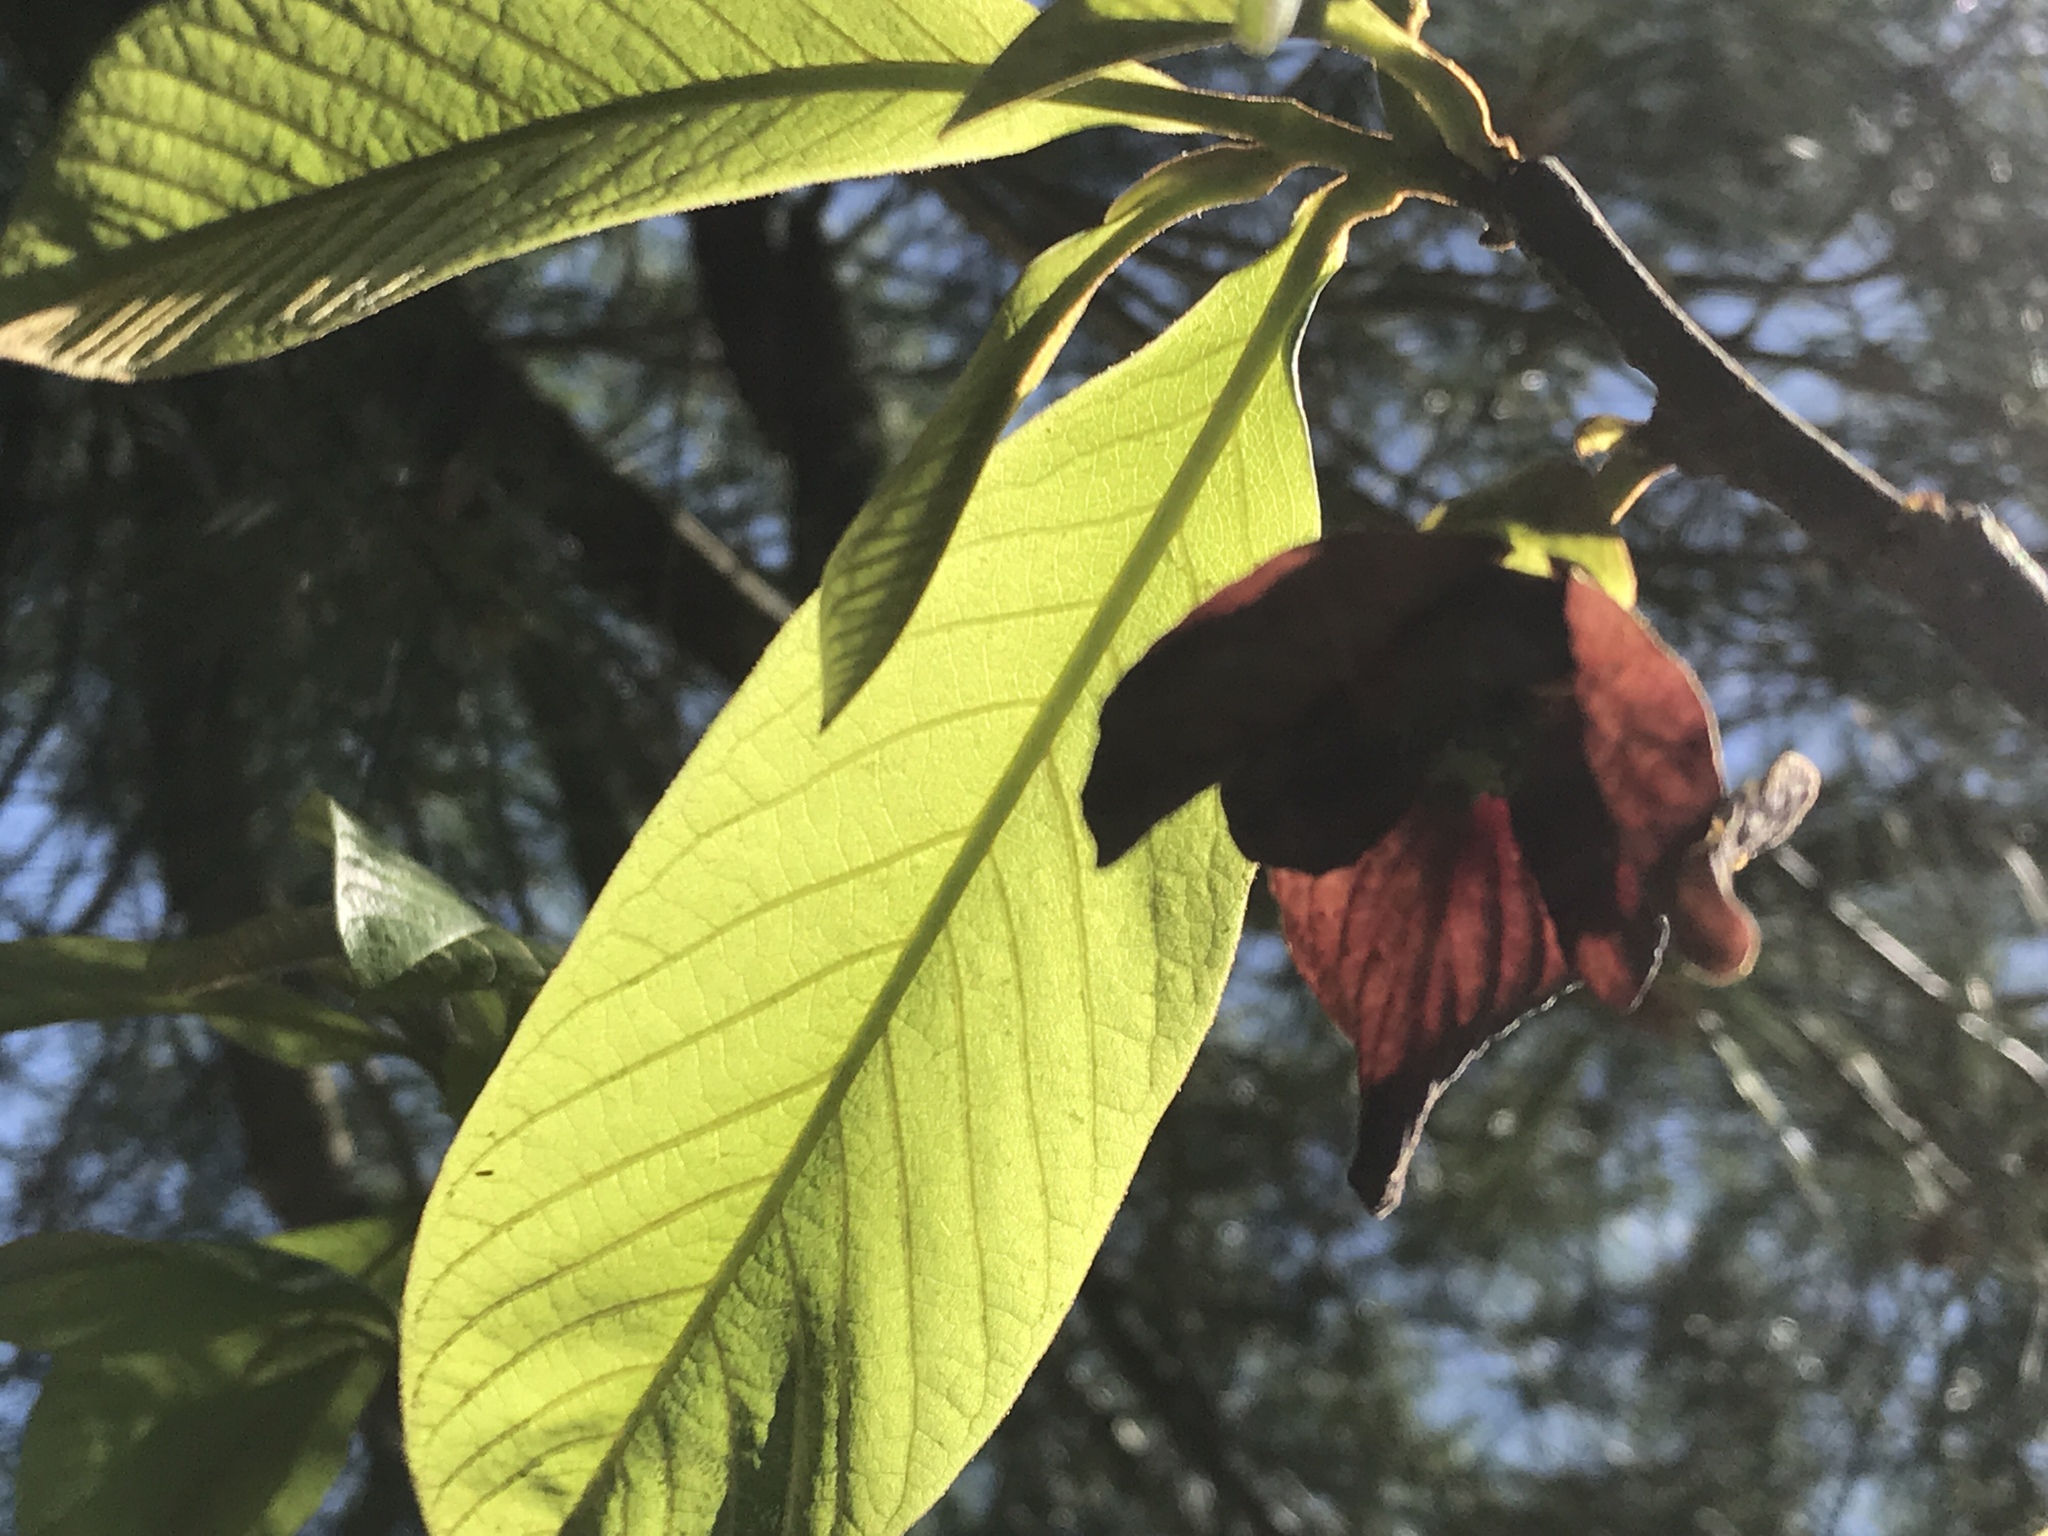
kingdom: Plantae
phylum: Tracheophyta
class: Magnoliopsida
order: Magnoliales
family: Annonaceae
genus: Asimina
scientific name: Asimina triloba
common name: Dog-banana
